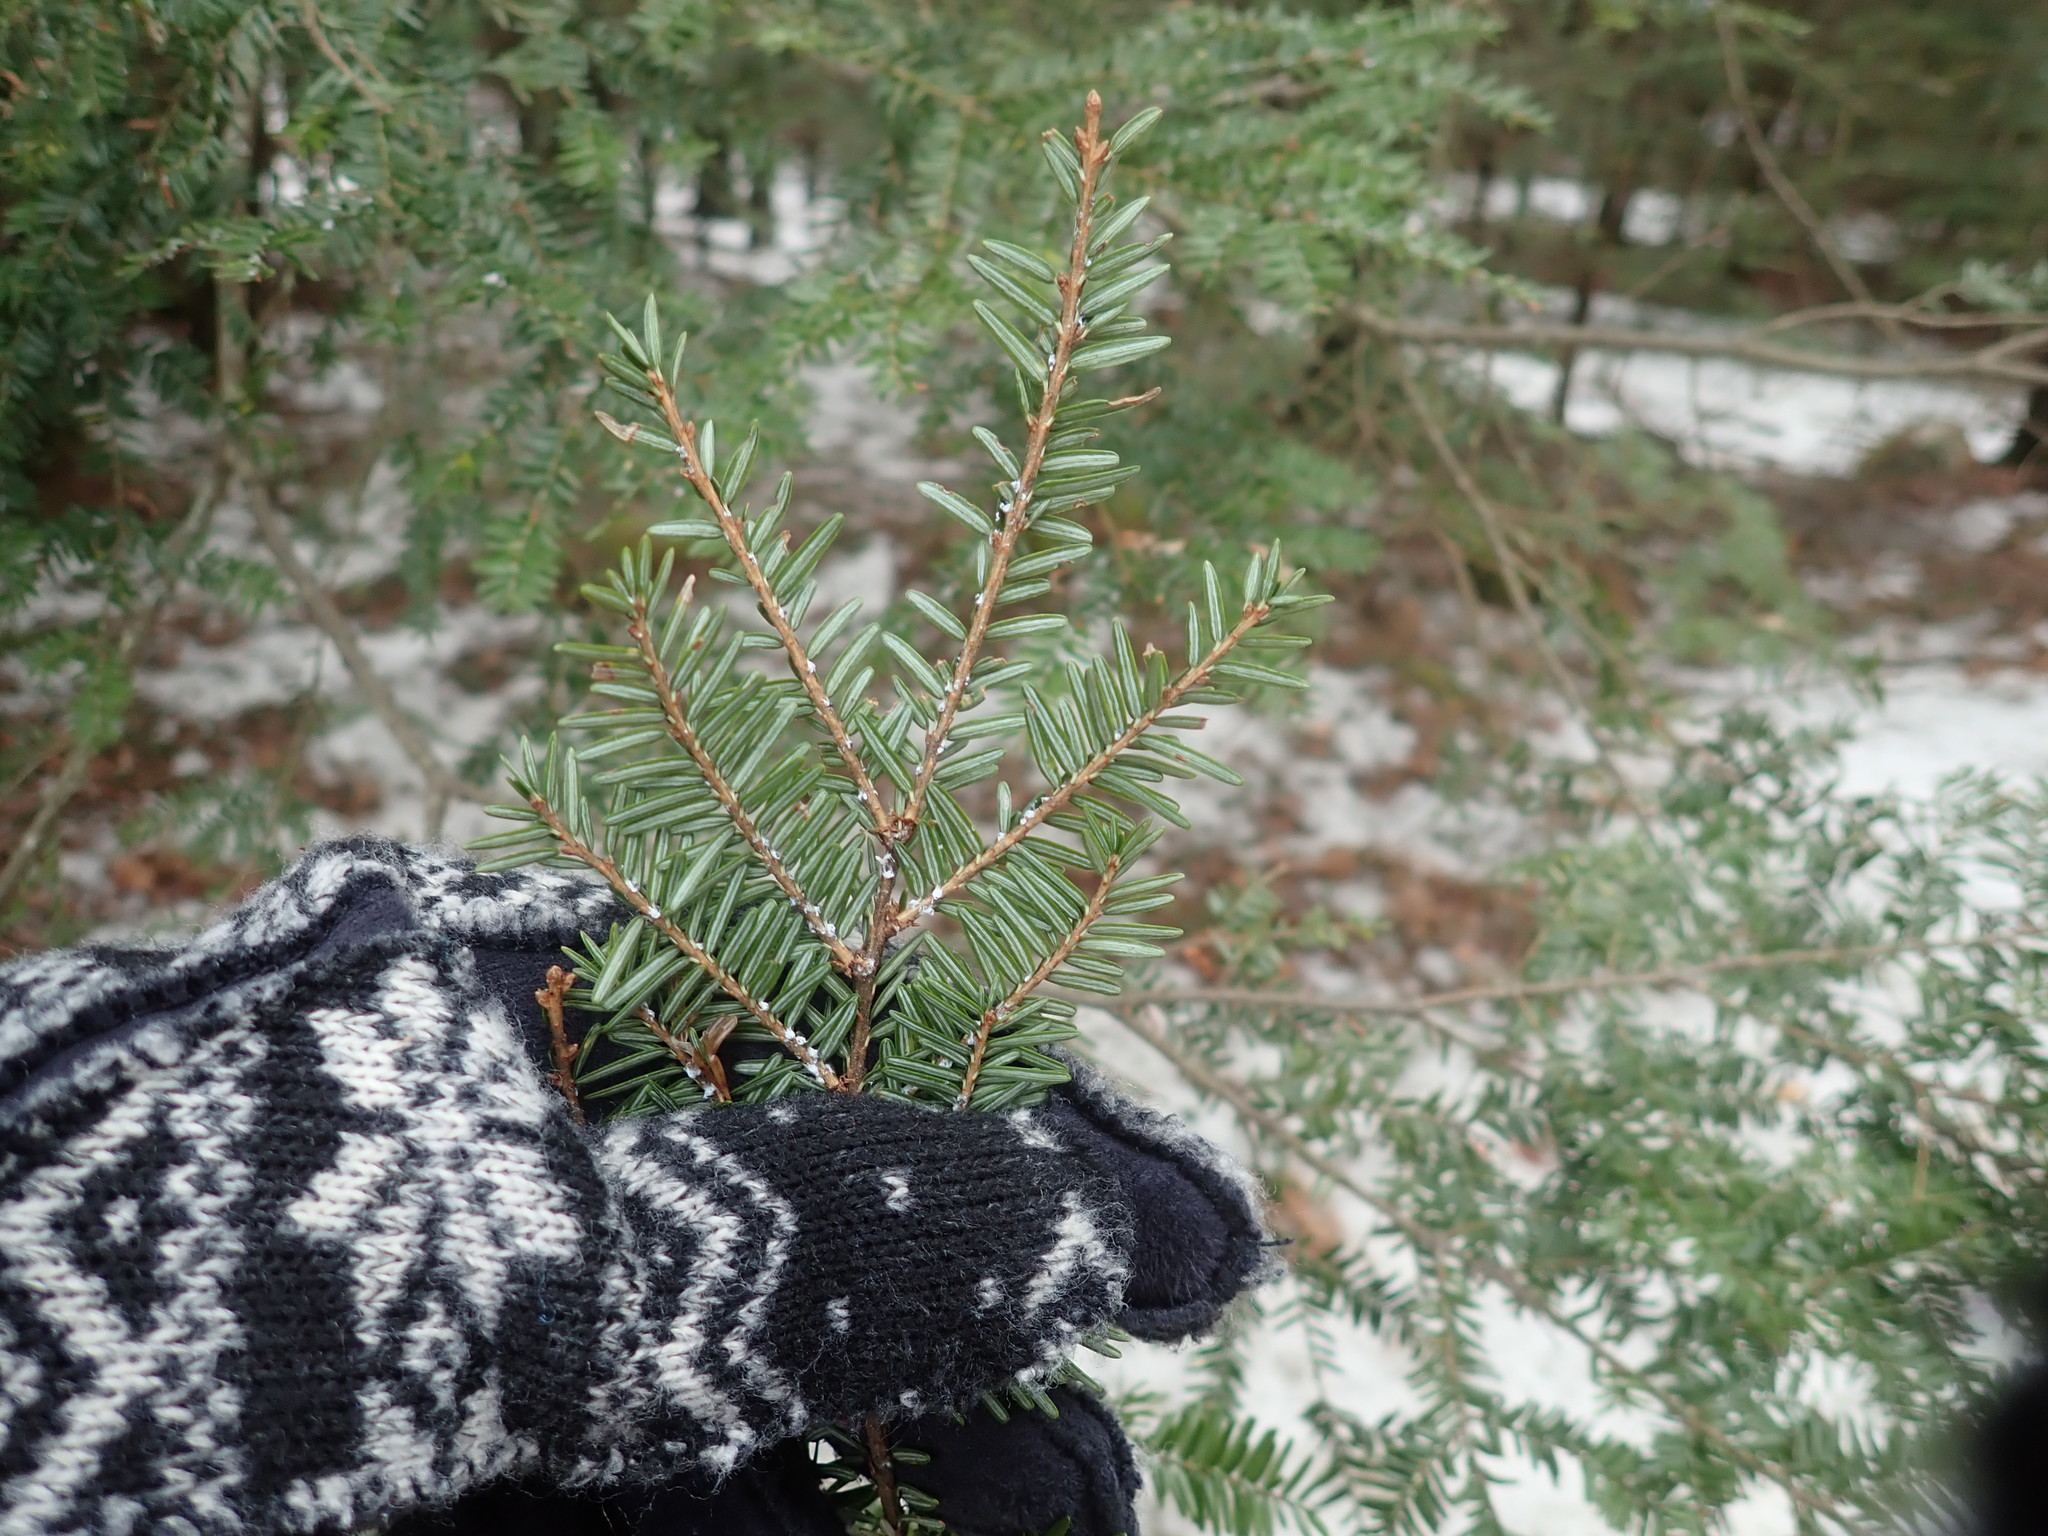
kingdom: Plantae
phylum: Tracheophyta
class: Pinopsida
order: Pinales
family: Pinaceae
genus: Tsuga
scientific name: Tsuga canadensis
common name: Eastern hemlock
